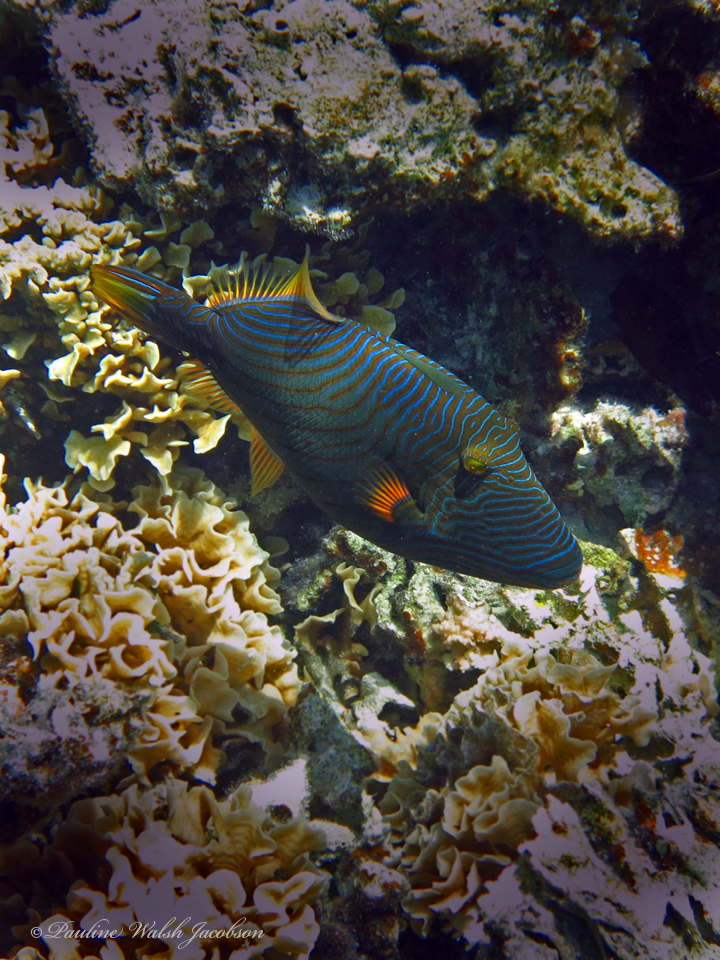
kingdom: Animalia
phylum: Chordata
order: Tetraodontiformes
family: Balistidae
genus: Balistapus
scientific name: Balistapus undulatus
